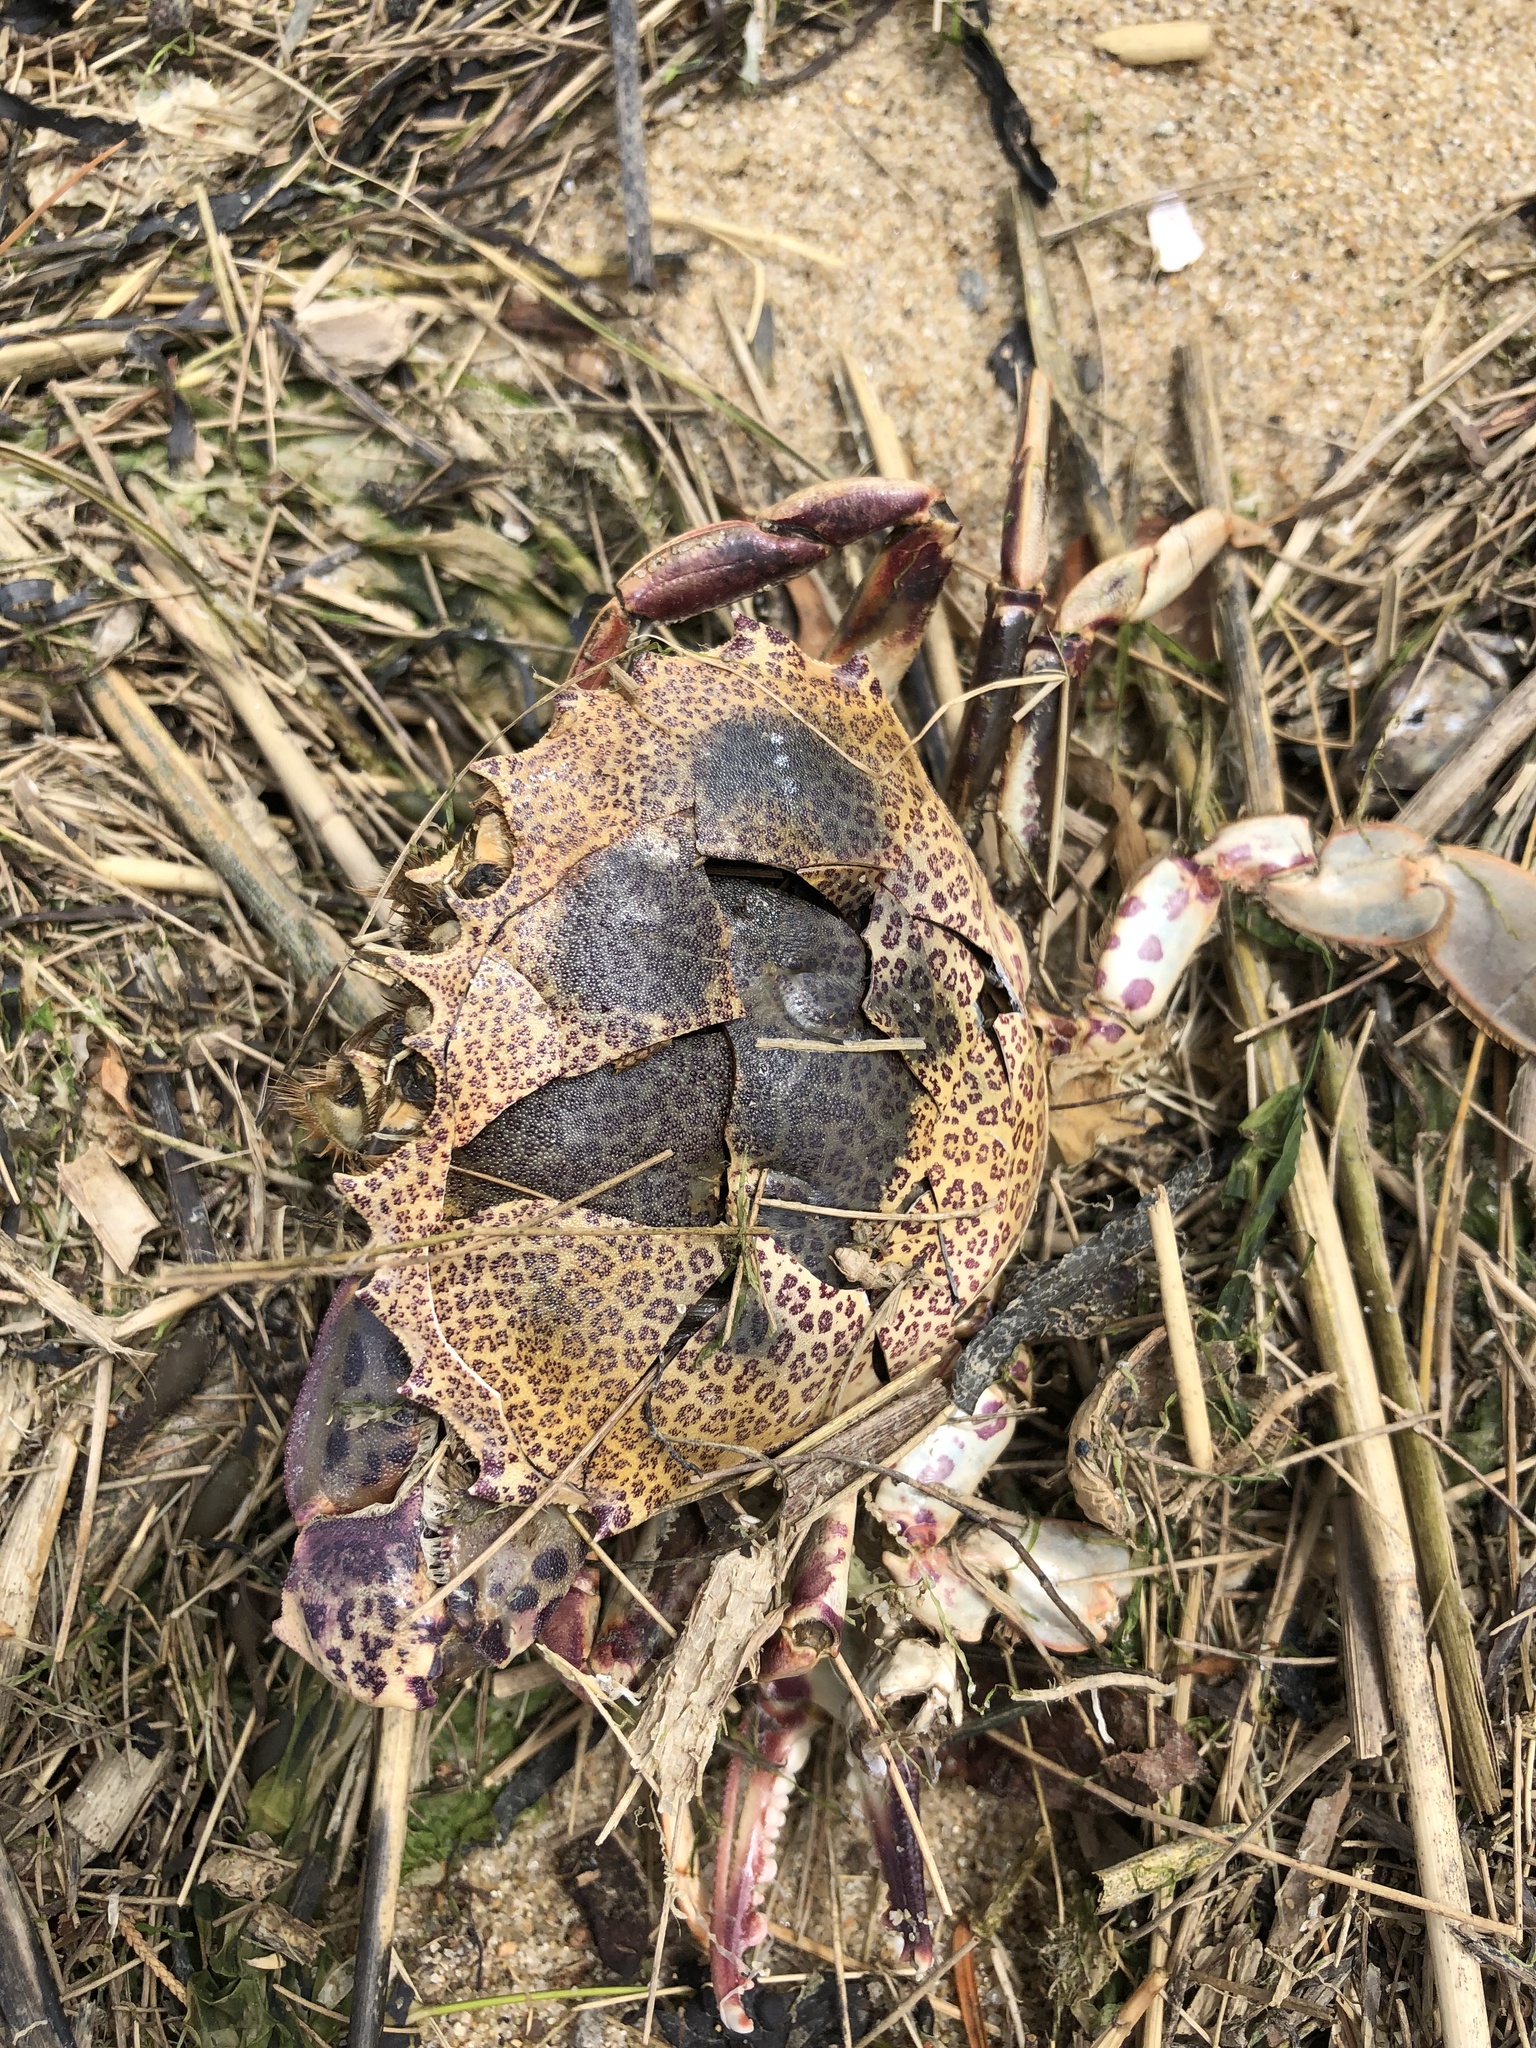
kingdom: Animalia
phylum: Arthropoda
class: Malacostraca
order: Decapoda
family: Ovalipidae
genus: Ovalipes
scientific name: Ovalipes ocellatus
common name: Lady crab
